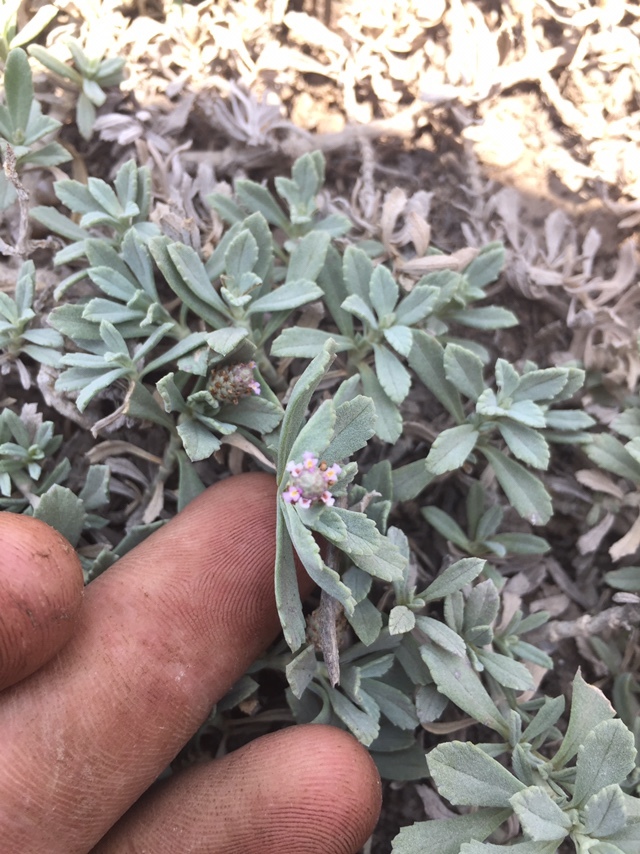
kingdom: Plantae
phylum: Tracheophyta
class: Magnoliopsida
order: Lamiales
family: Verbenaceae
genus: Phyla
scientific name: Phyla nodiflora
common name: Frogfruit
